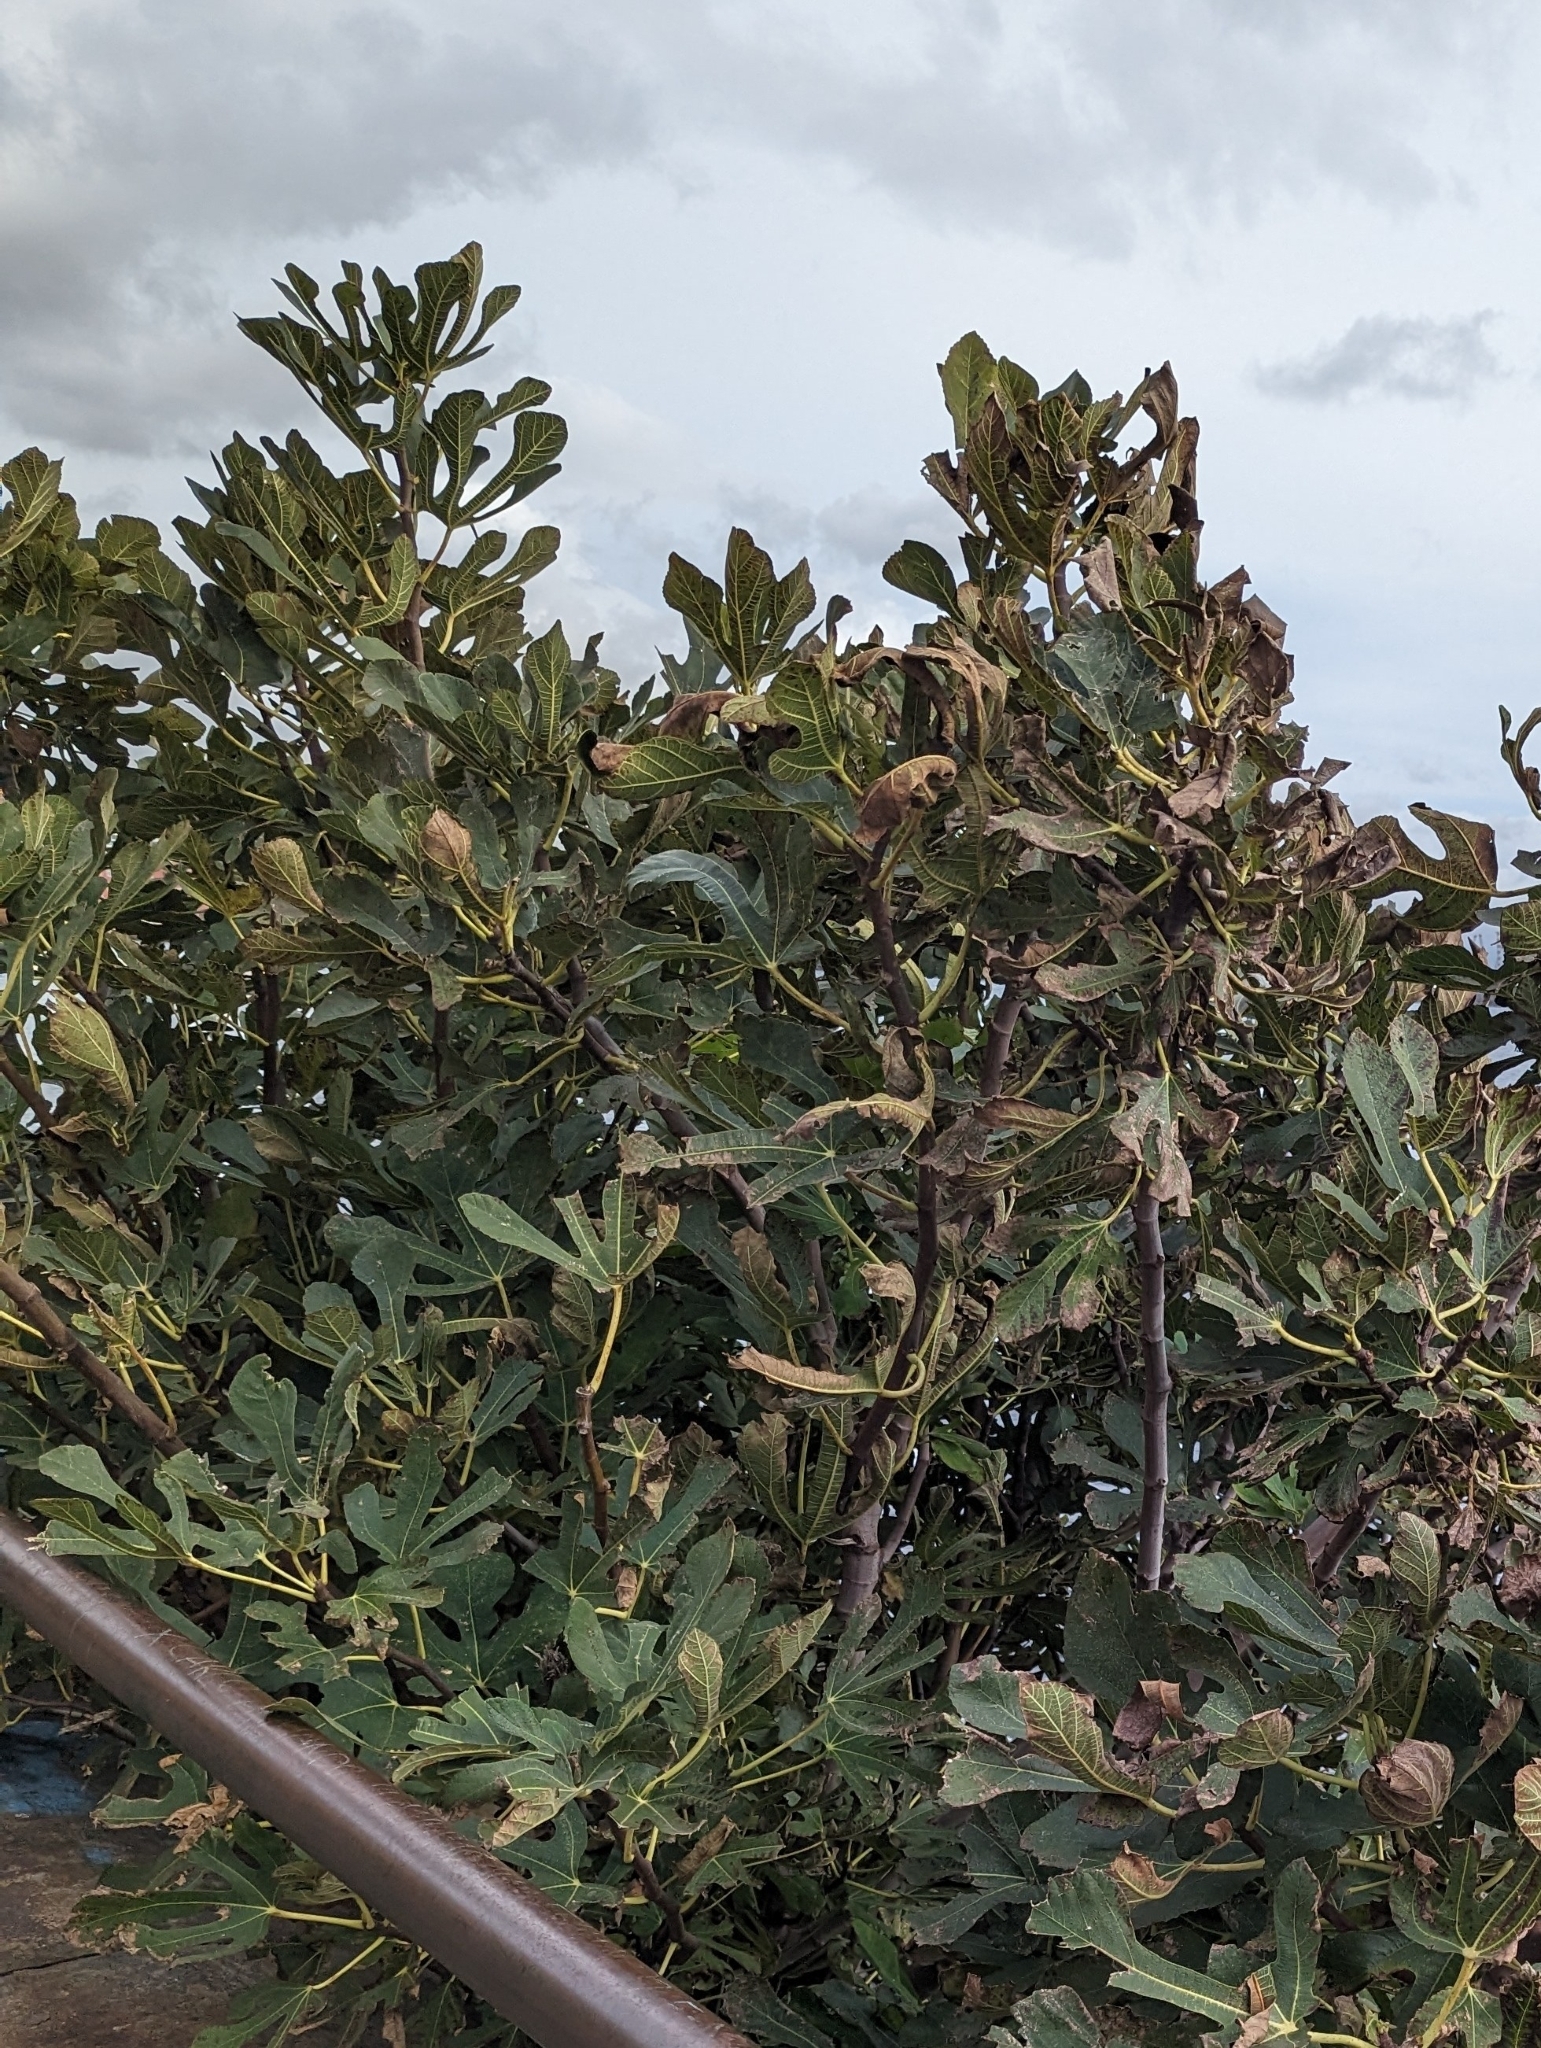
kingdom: Plantae
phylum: Tracheophyta
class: Magnoliopsida
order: Rosales
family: Moraceae
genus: Ficus
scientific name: Ficus carica
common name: Fig
